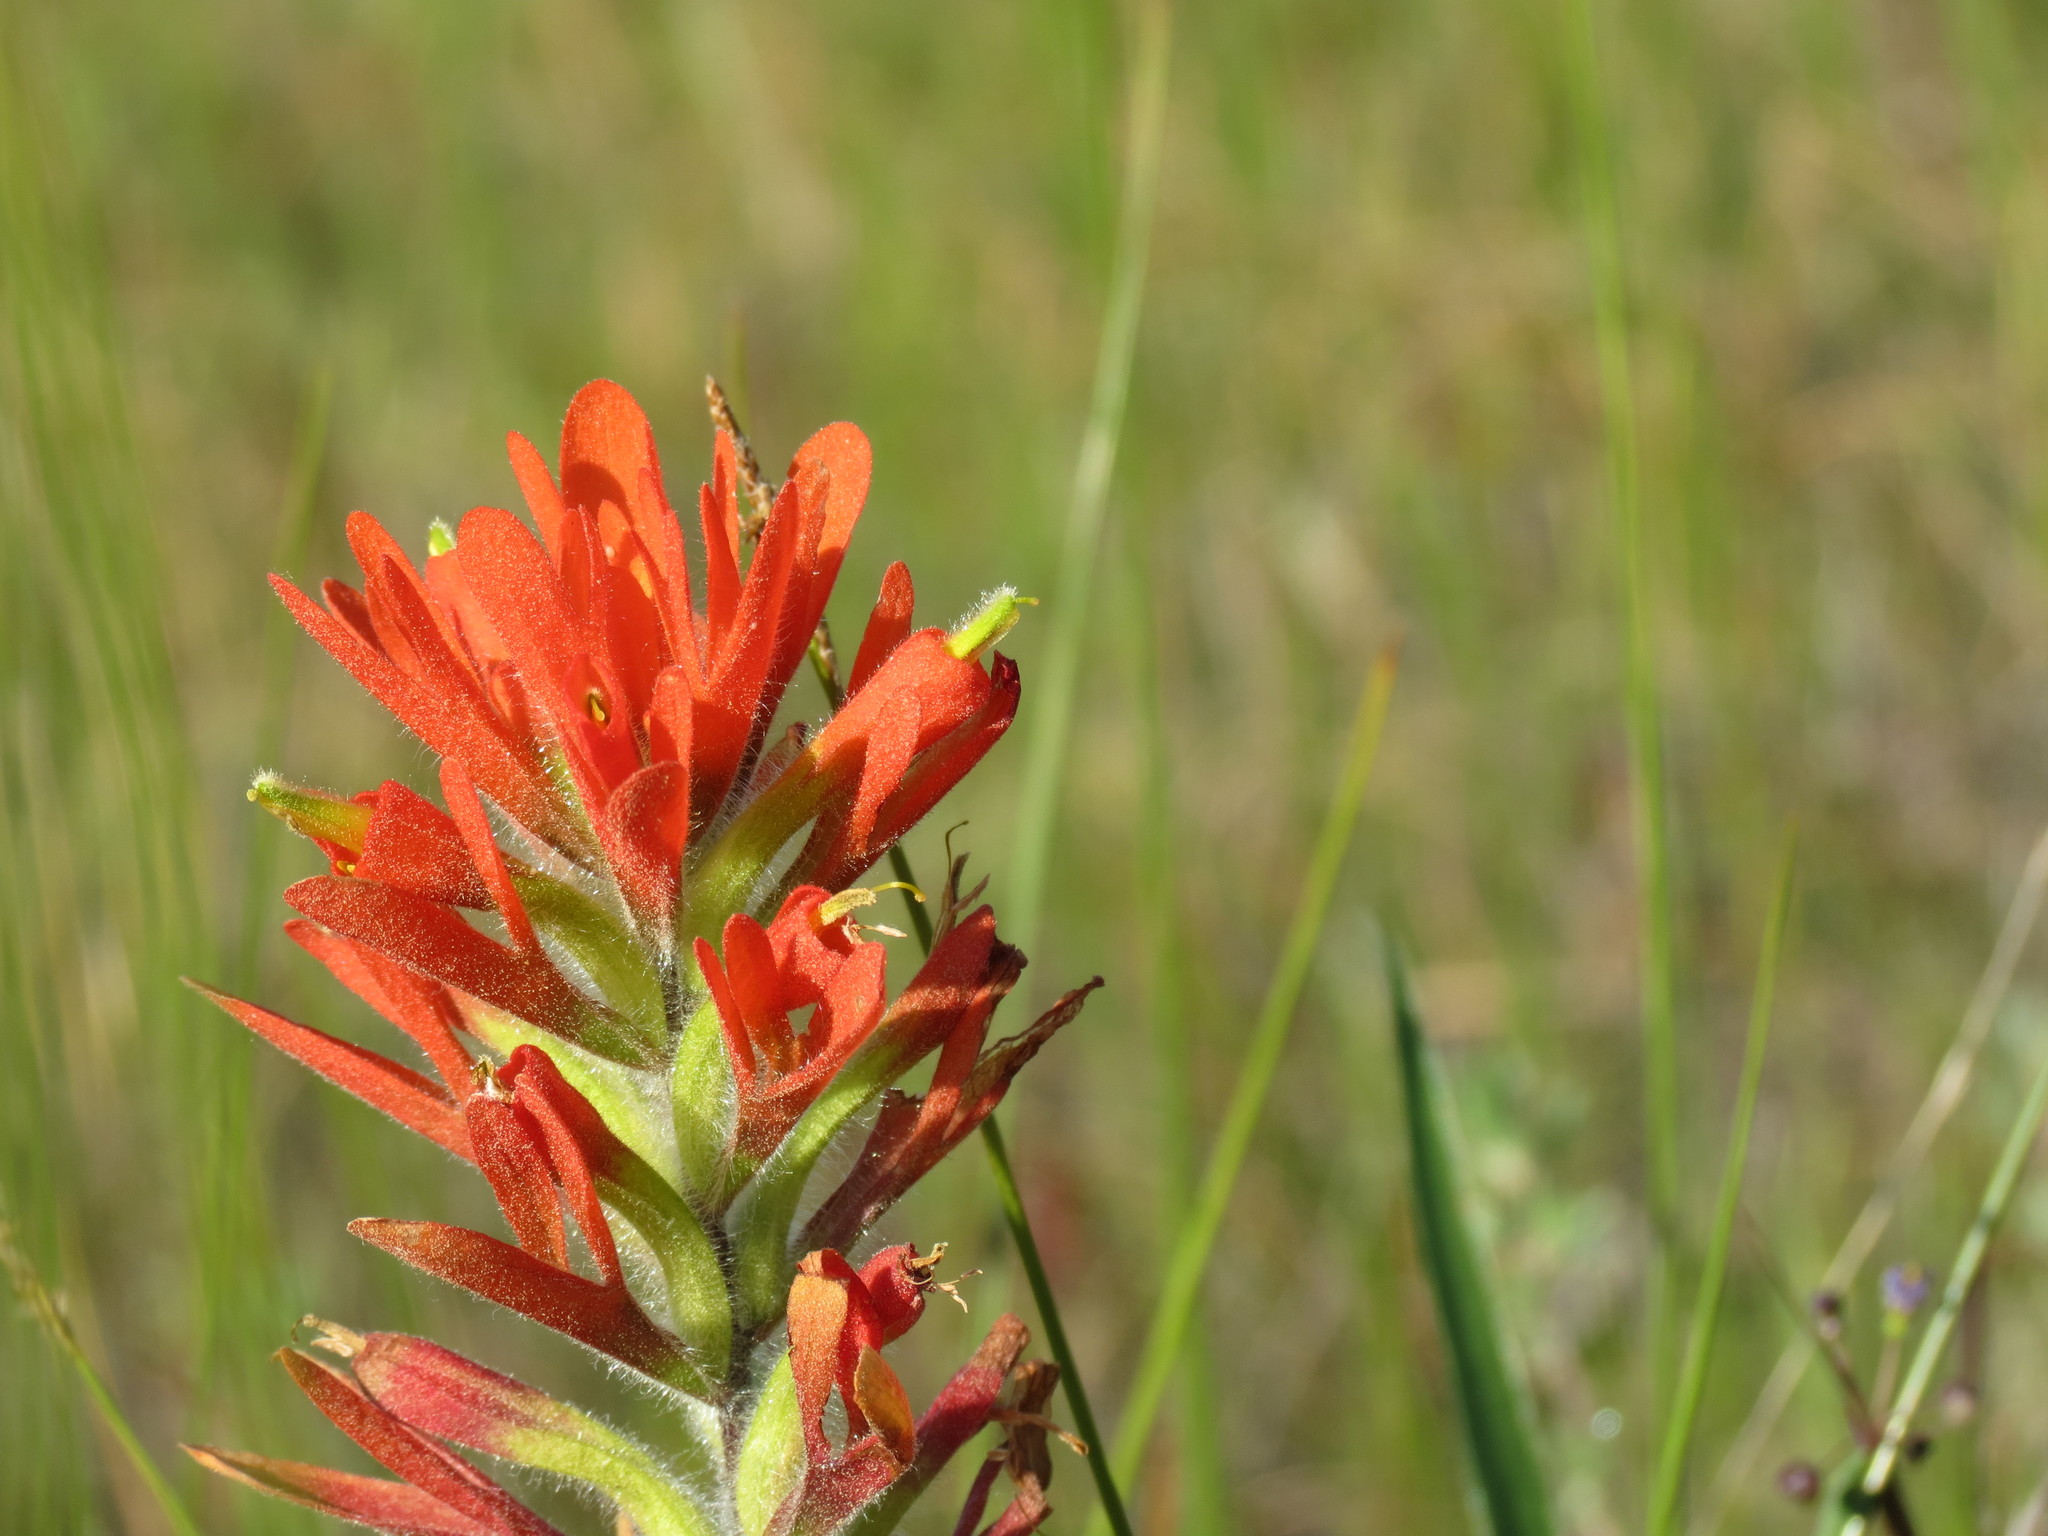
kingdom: Plantae
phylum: Tracheophyta
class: Magnoliopsida
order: Lamiales
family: Orobanchaceae
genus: Castilleja
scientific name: Castilleja coccinea
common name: Scarlet paintbrush
